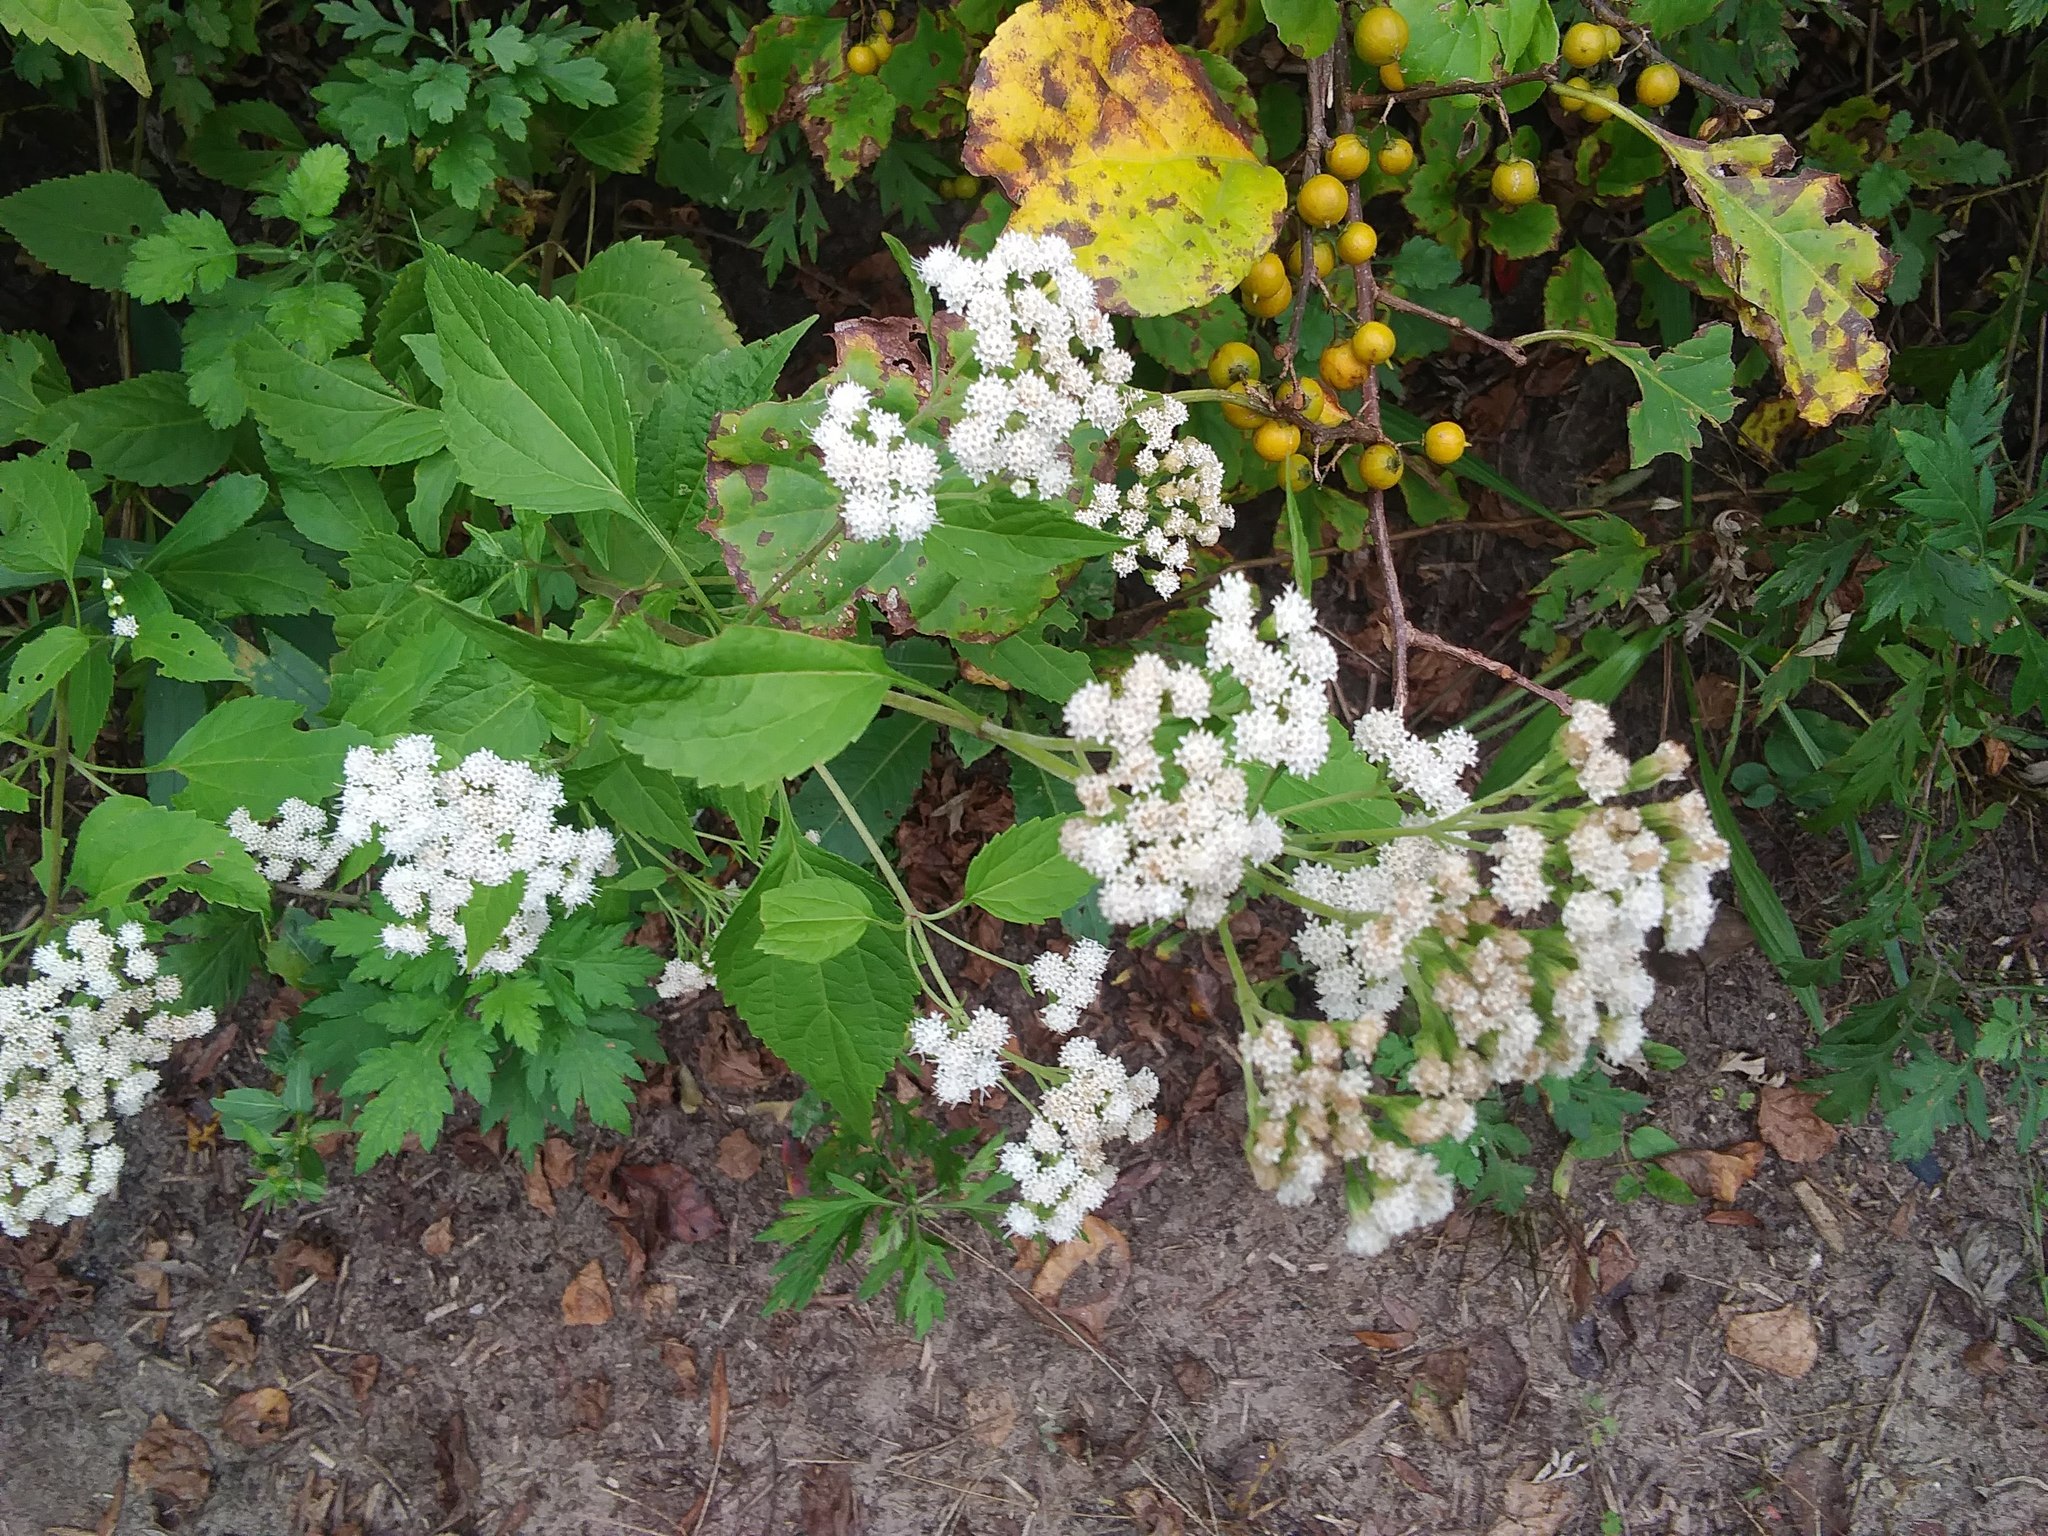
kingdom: Plantae
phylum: Tracheophyta
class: Magnoliopsida
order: Asterales
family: Asteraceae
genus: Ageratina
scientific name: Ageratina altissima
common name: White snakeroot
